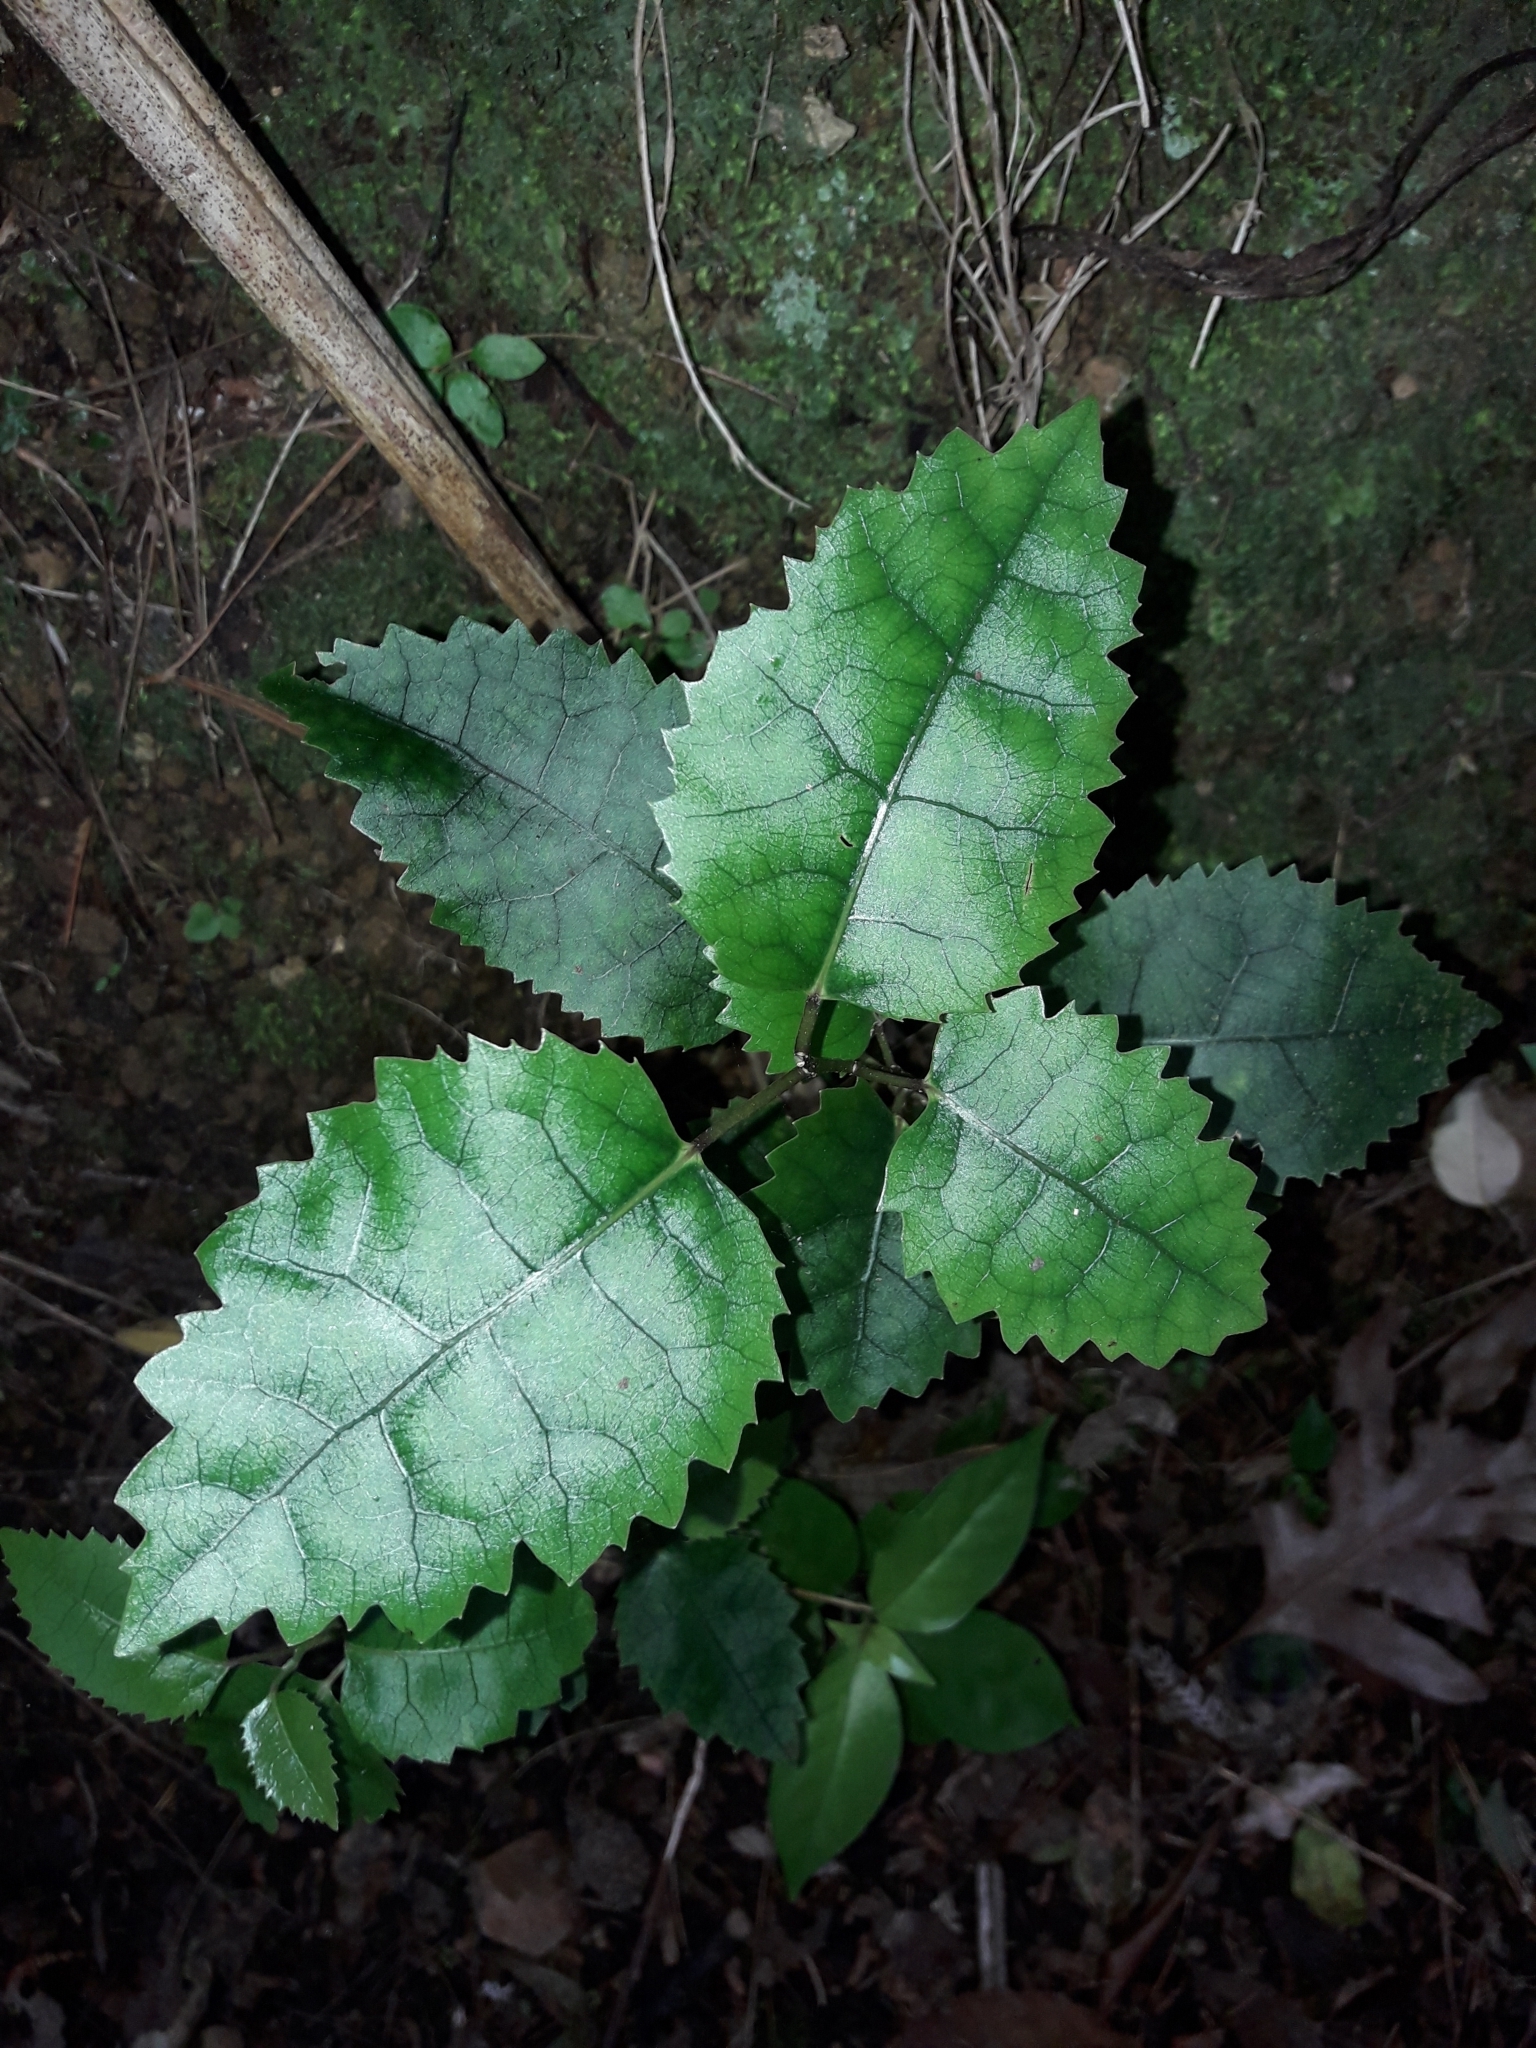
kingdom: Plantae
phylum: Tracheophyta
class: Magnoliopsida
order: Malvales
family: Malvaceae
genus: Hoheria
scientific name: Hoheria populnea
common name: Lacebark
